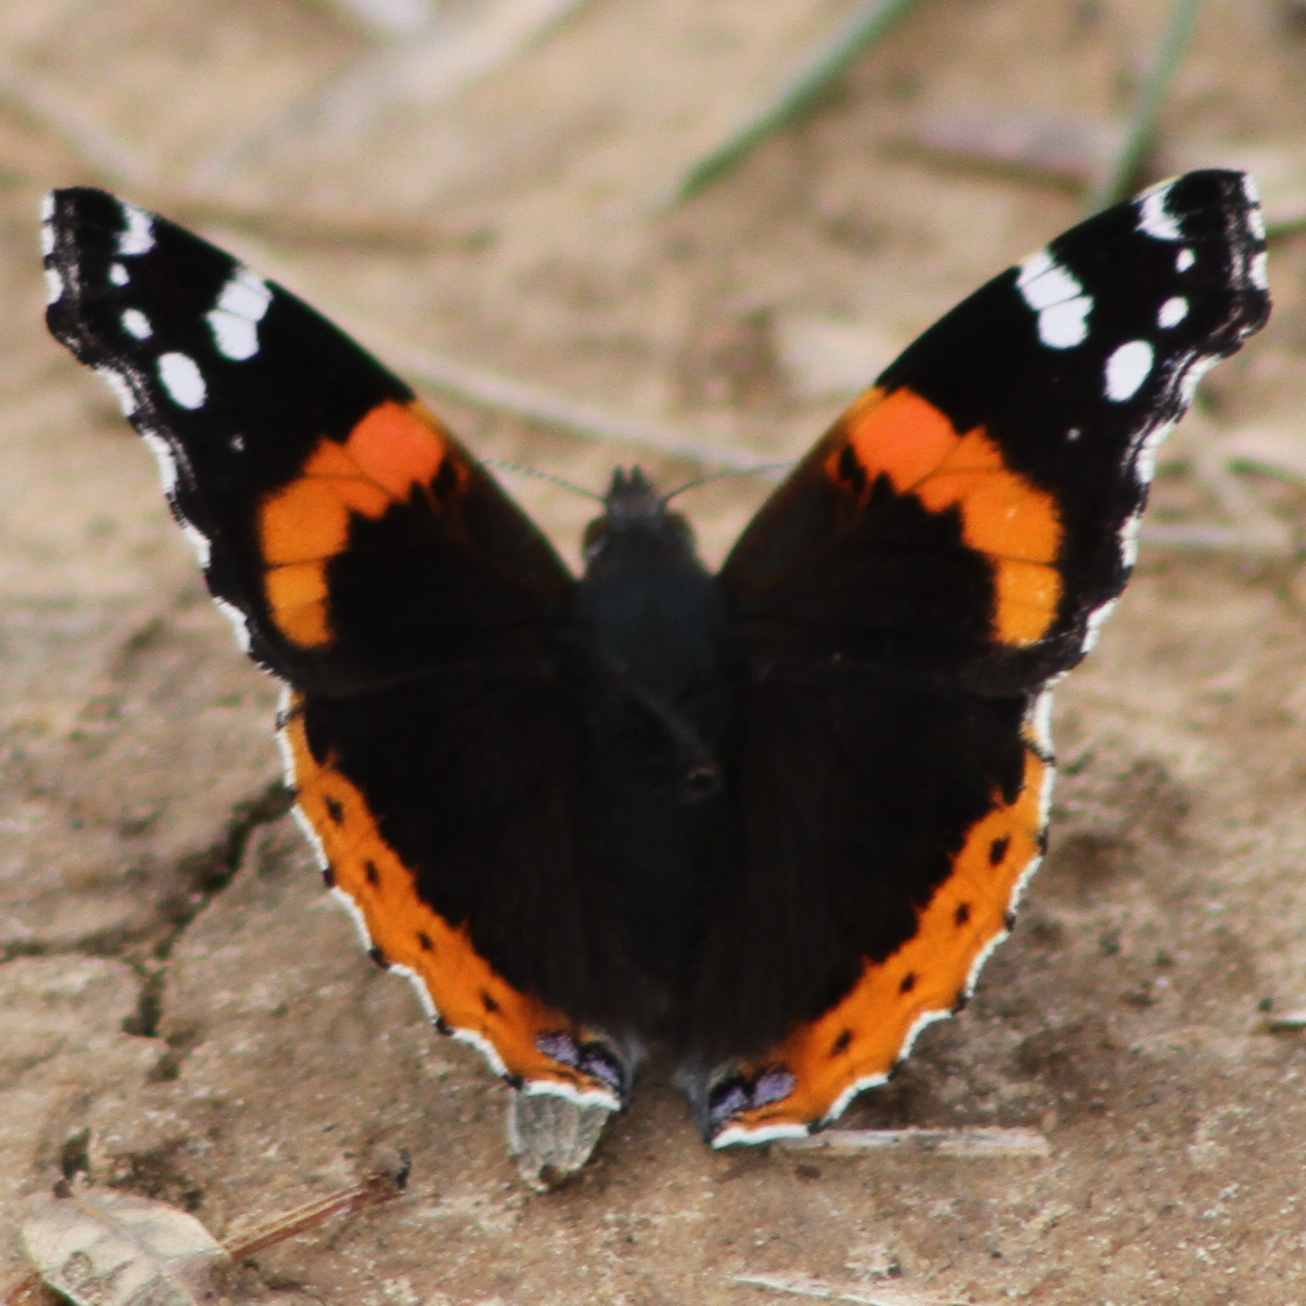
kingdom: Animalia
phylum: Arthropoda
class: Insecta
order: Lepidoptera
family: Nymphalidae
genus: Vanessa
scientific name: Vanessa atalanta
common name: Red admiral
